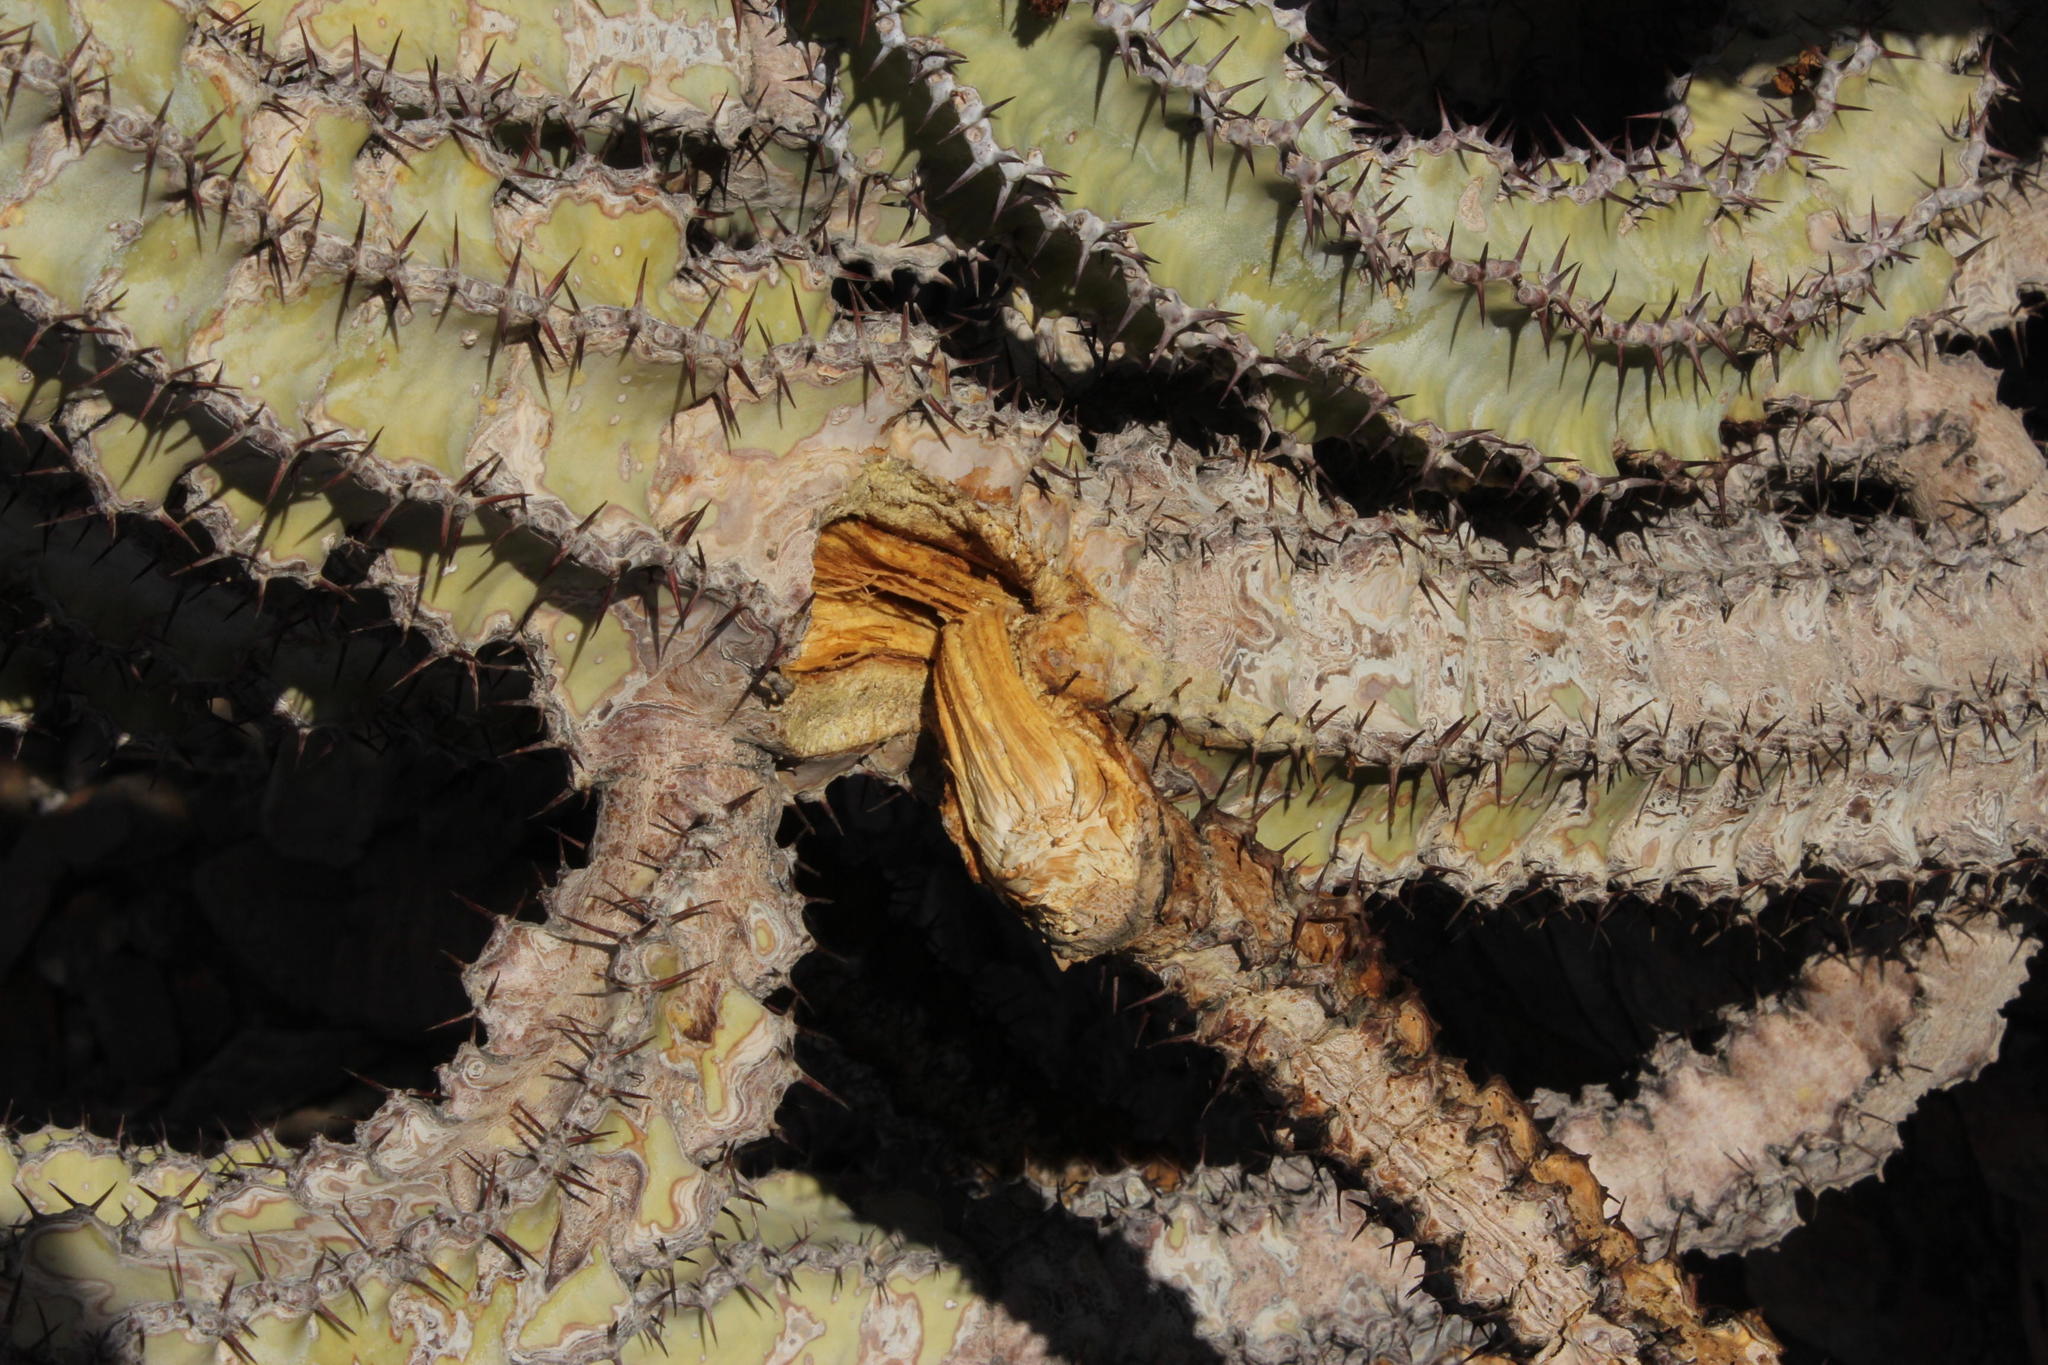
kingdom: Plantae
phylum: Tracheophyta
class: Magnoliopsida
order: Malpighiales
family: Euphorbiaceae
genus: Euphorbia
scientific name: Euphorbia virosa
